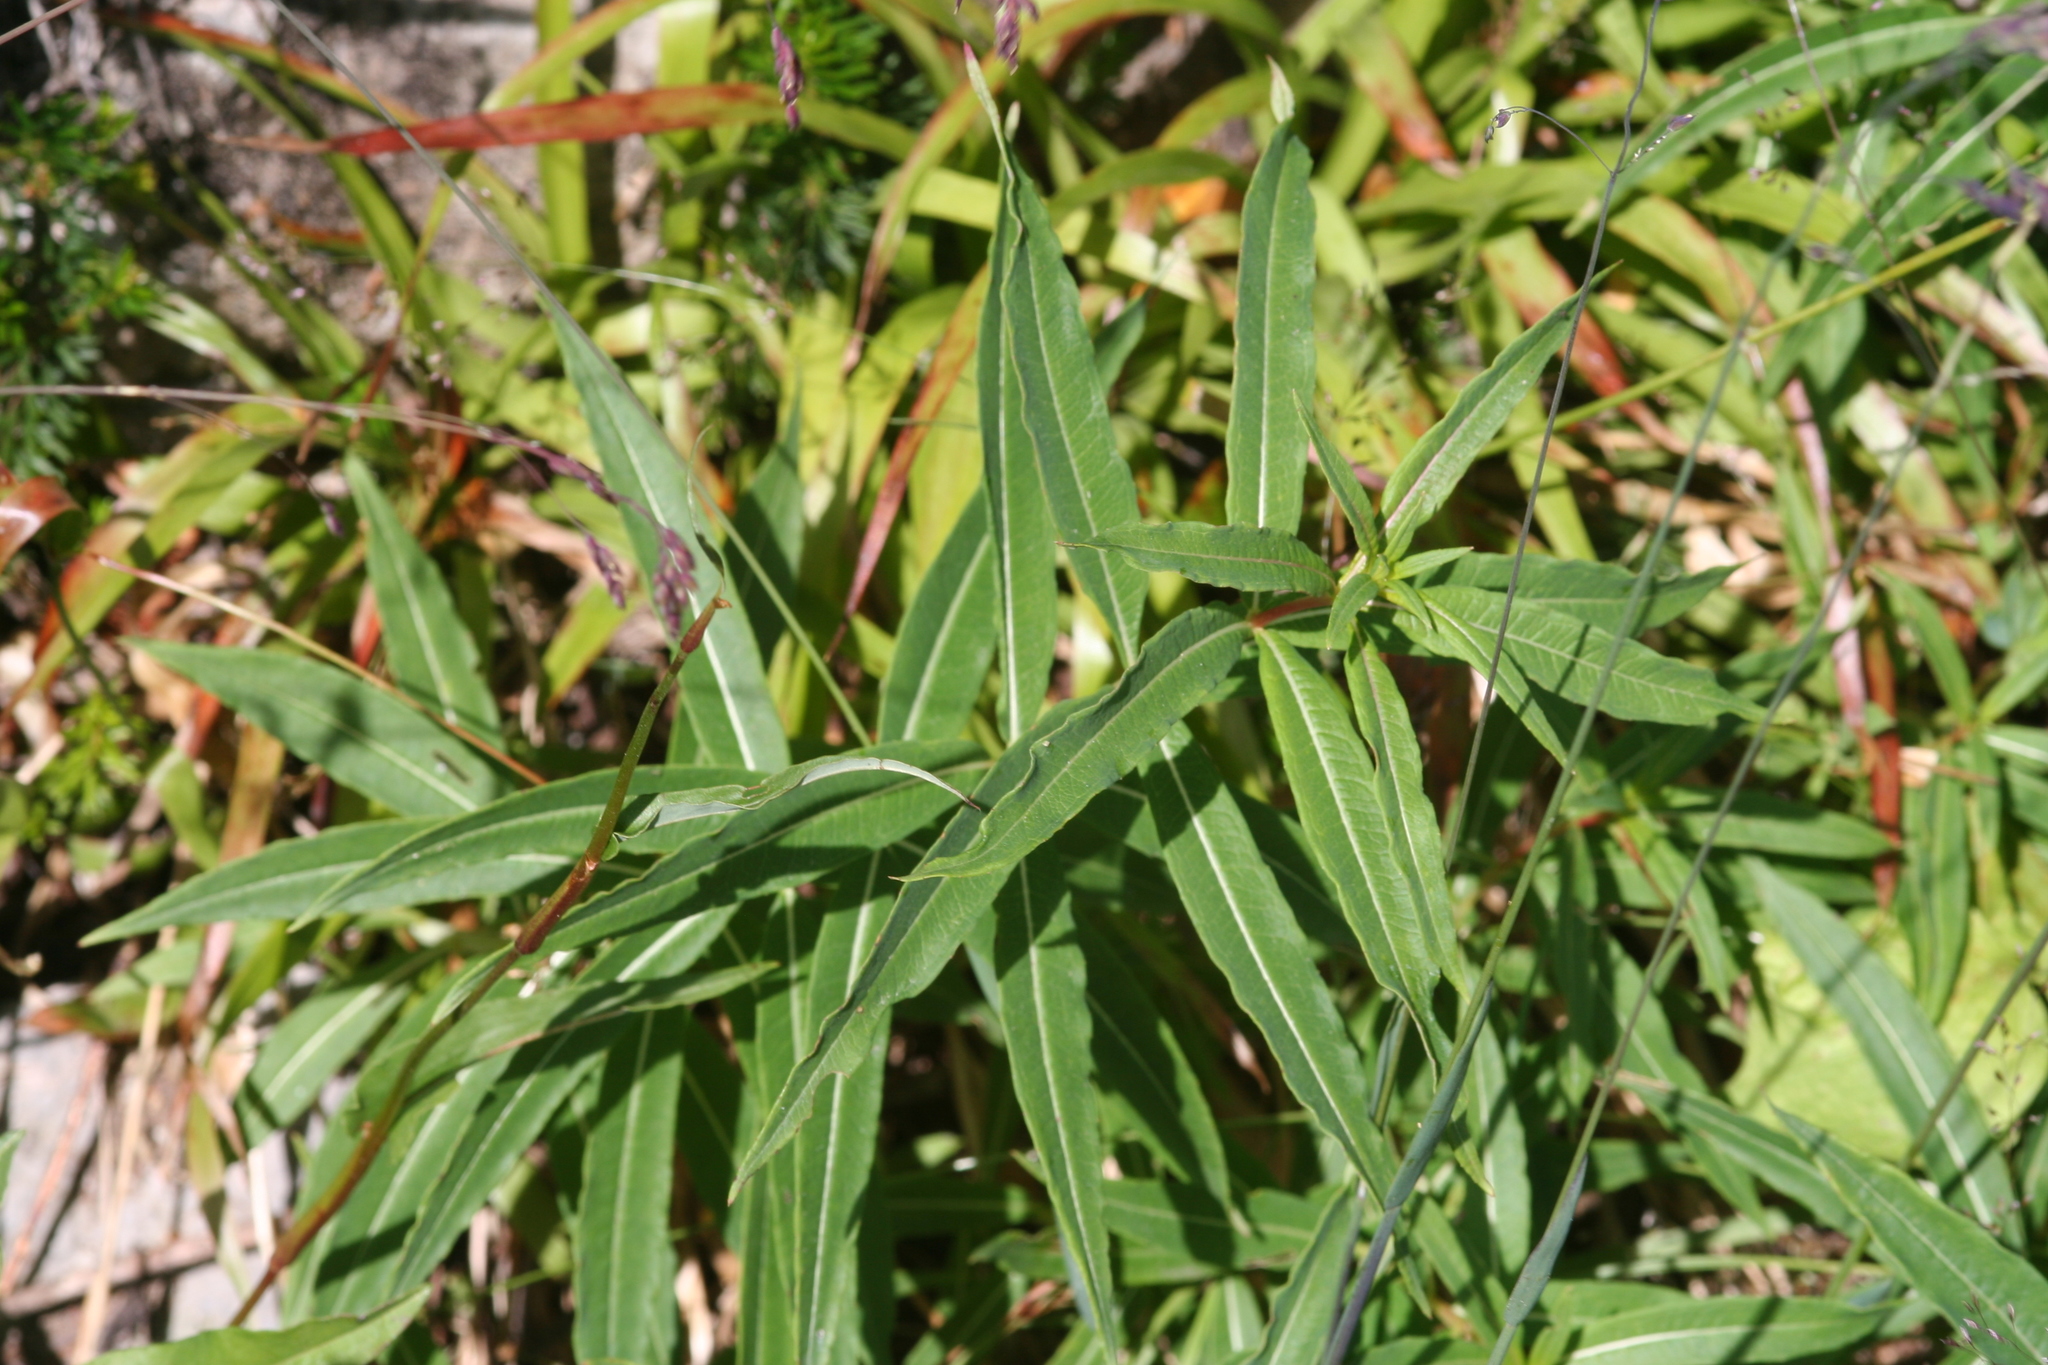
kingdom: Plantae
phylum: Tracheophyta
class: Magnoliopsida
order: Myrtales
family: Onagraceae
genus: Chamaenerion
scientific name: Chamaenerion angustifolium
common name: Fireweed
